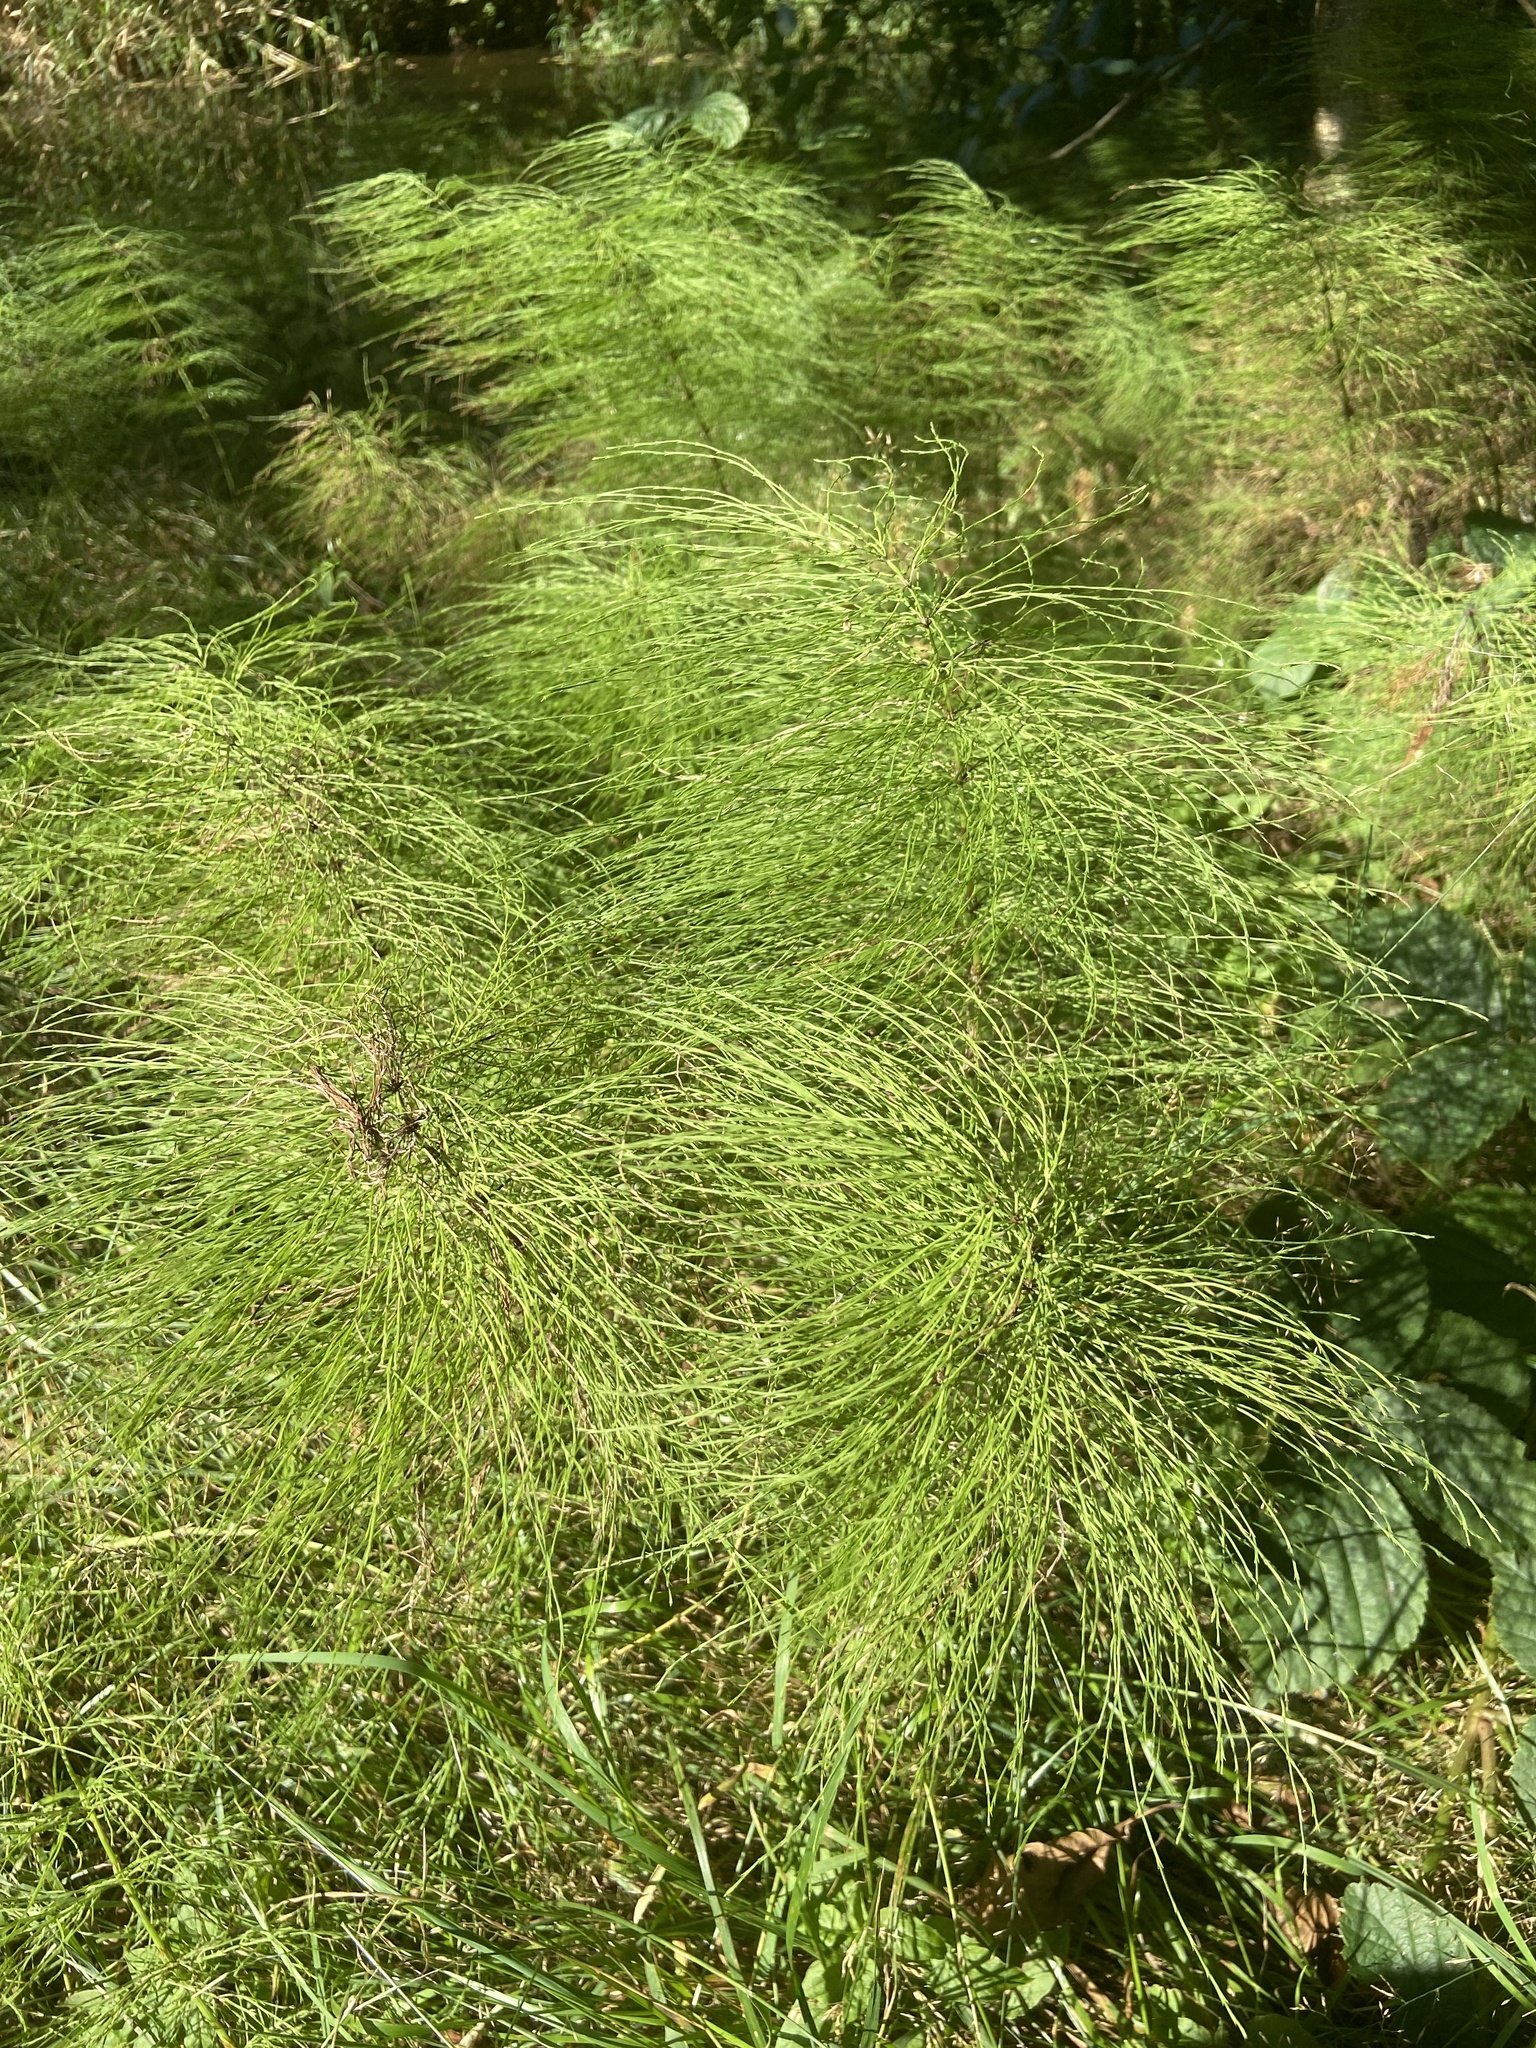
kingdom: Plantae
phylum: Tracheophyta
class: Polypodiopsida
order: Equisetales
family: Equisetaceae
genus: Equisetum
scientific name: Equisetum sylvaticum
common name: Wood horsetail
